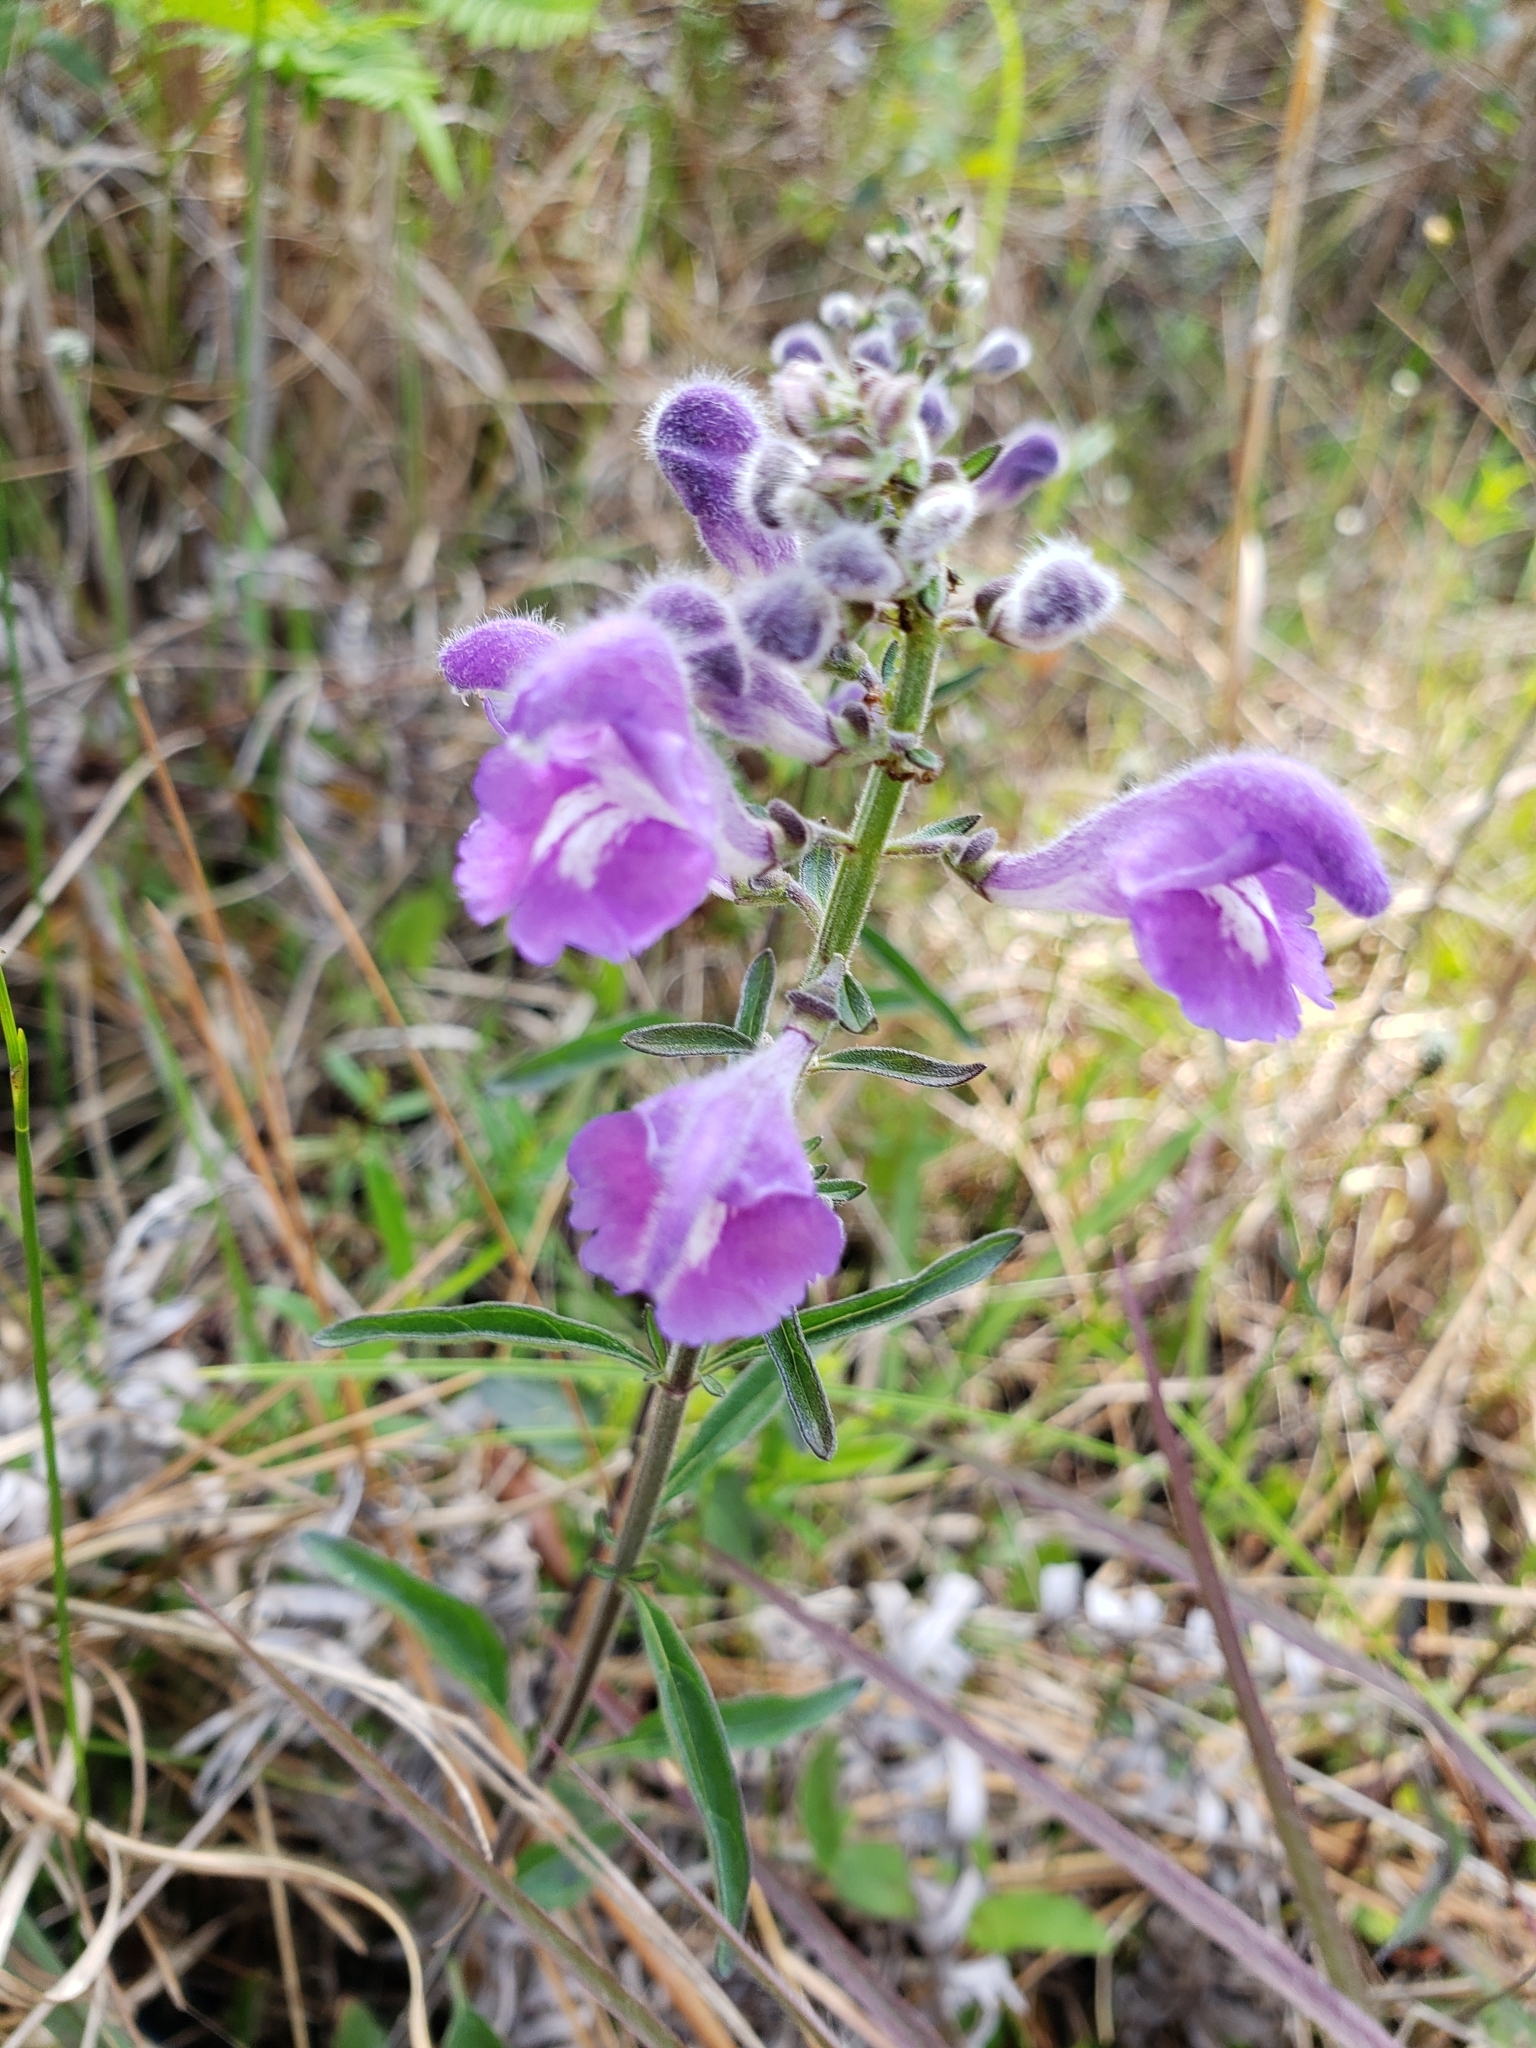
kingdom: Plantae
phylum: Tracheophyta
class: Magnoliopsida
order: Lamiales
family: Lamiaceae
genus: Scutellaria
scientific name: Scutellaria integrifolia
